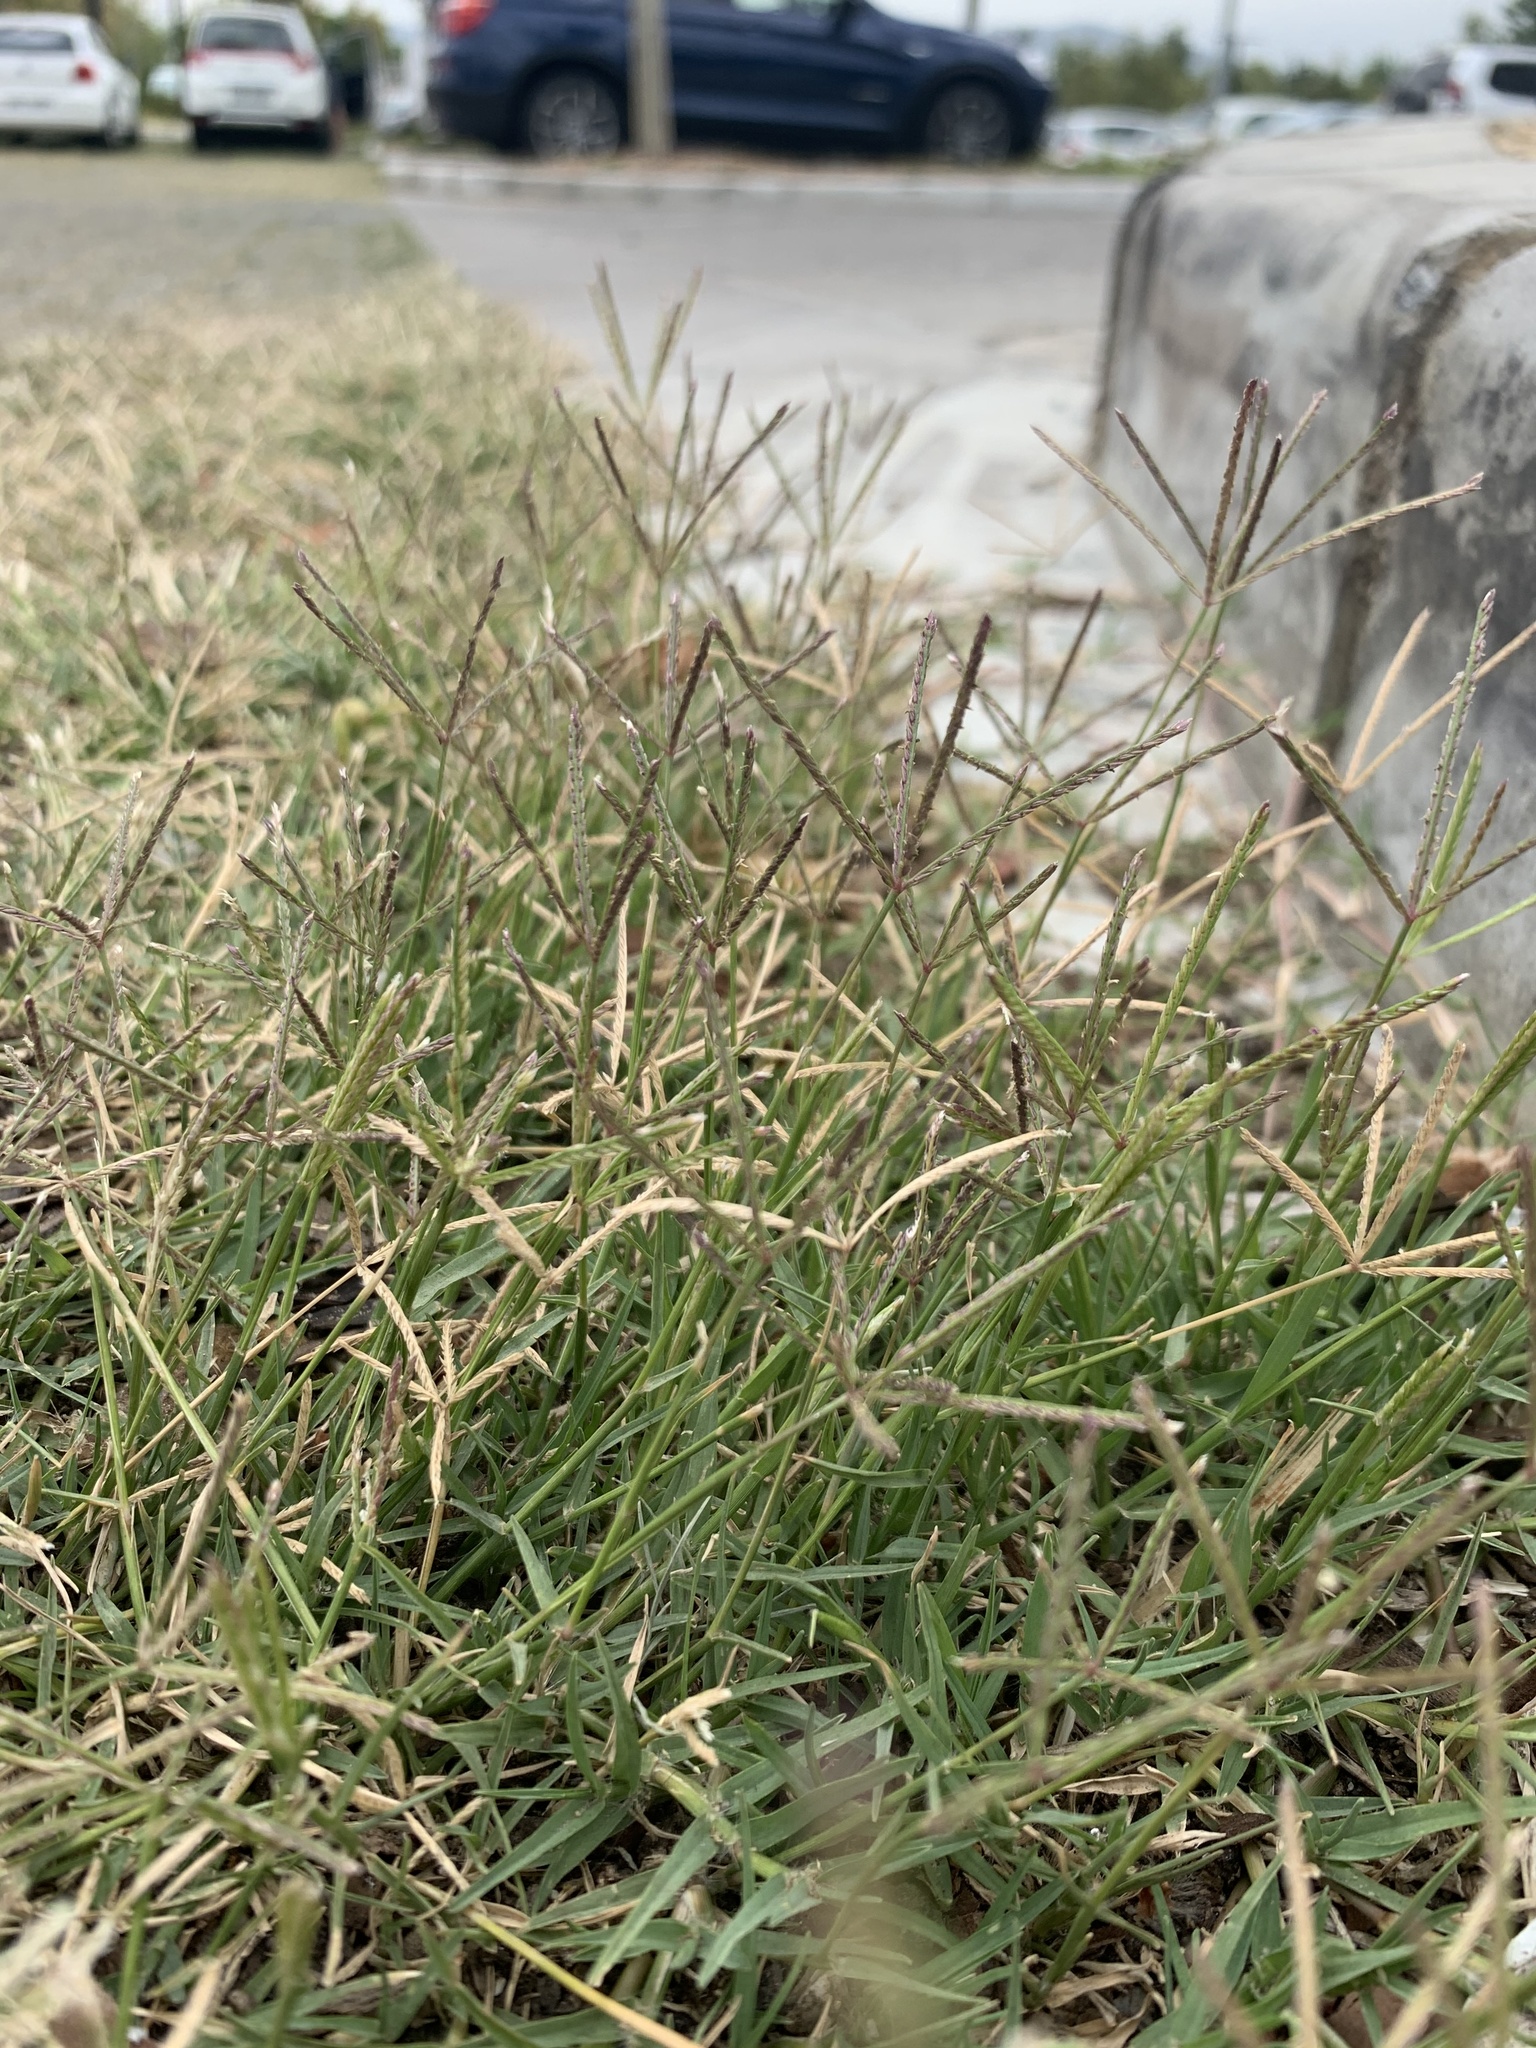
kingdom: Plantae
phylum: Tracheophyta
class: Liliopsida
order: Poales
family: Poaceae
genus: Cynodon
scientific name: Cynodon dactylon
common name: Bermuda grass
